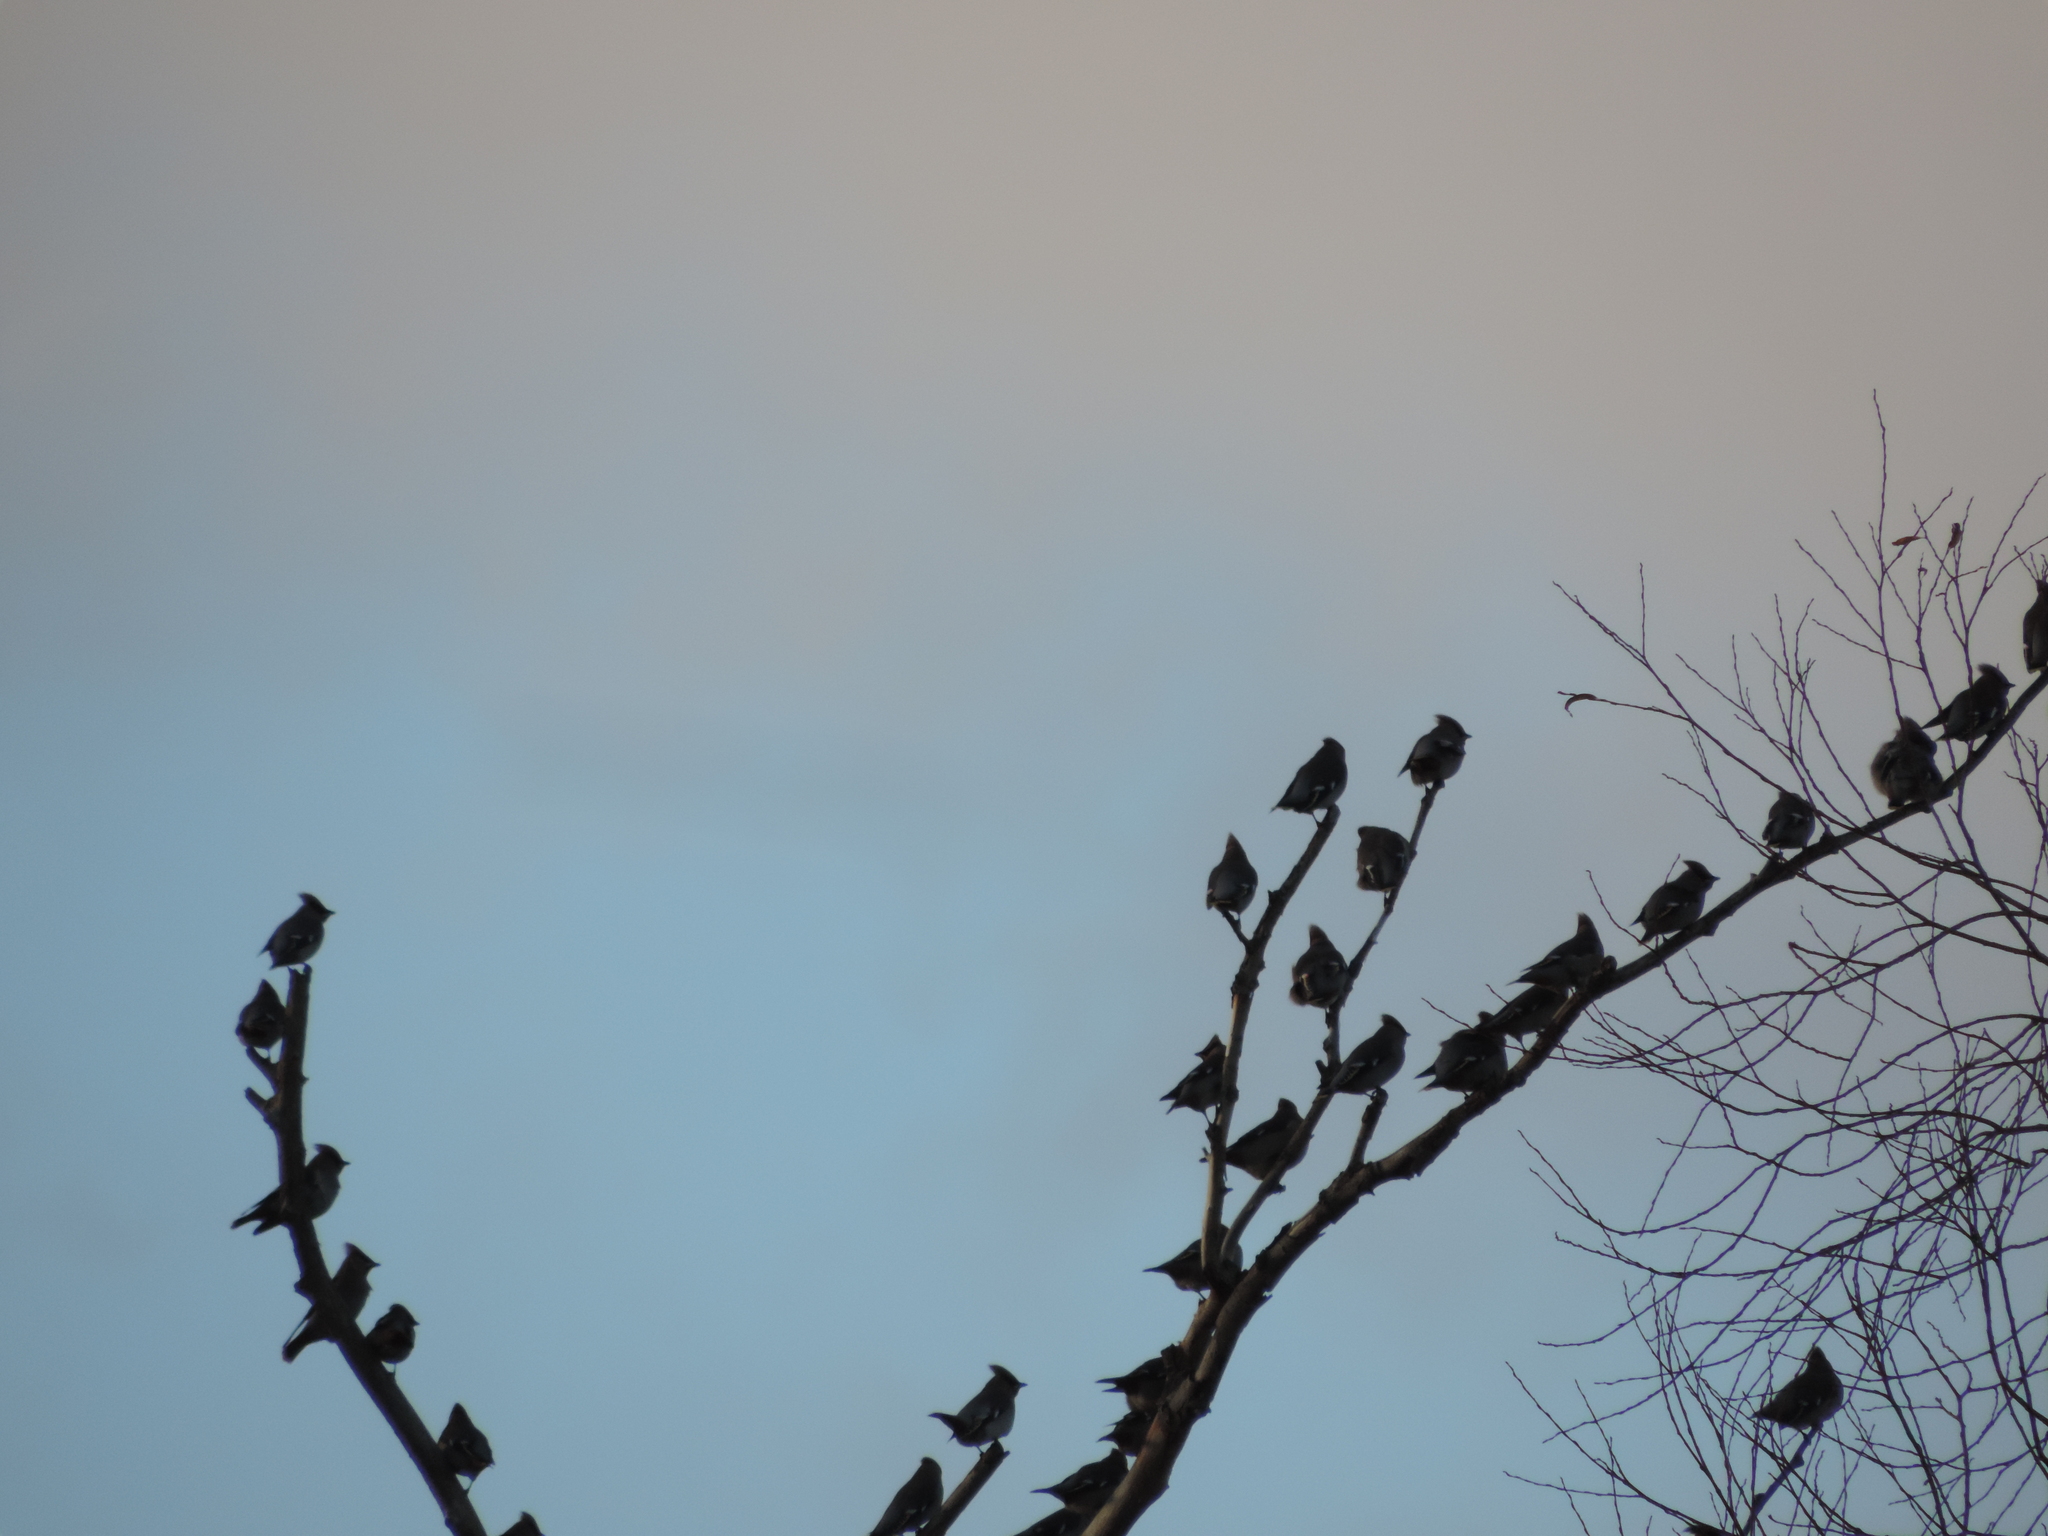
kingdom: Animalia
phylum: Chordata
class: Aves
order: Passeriformes
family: Bombycillidae
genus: Bombycilla
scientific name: Bombycilla garrulus
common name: Bohemian waxwing
